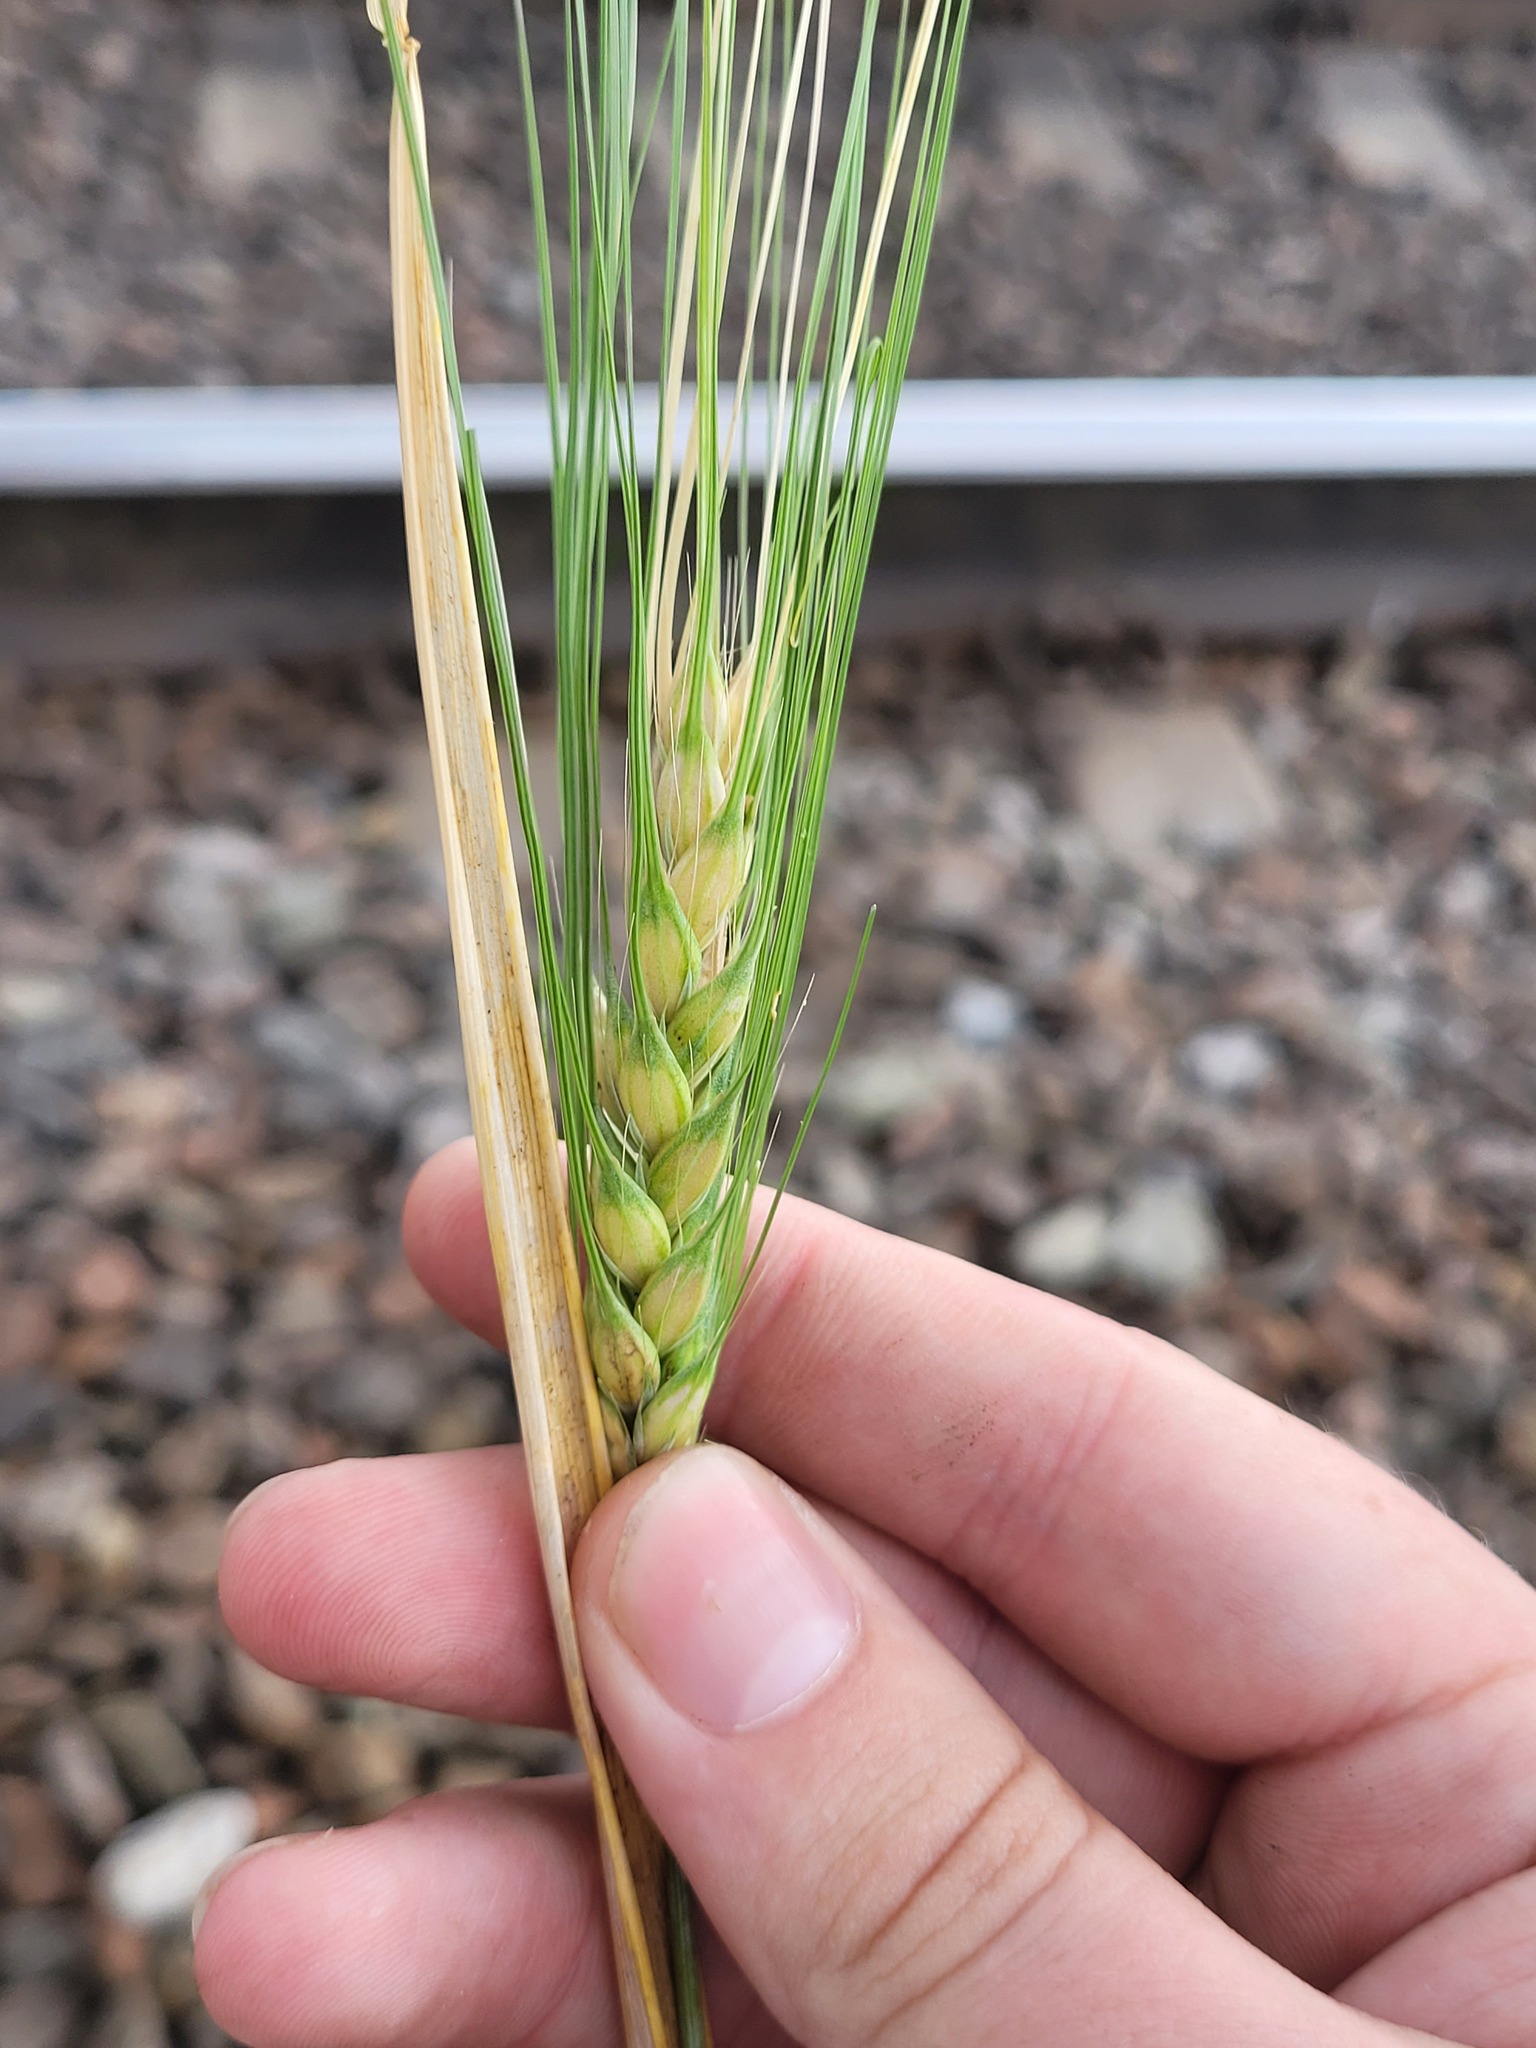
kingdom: Plantae
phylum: Tracheophyta
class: Liliopsida
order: Poales
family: Poaceae
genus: Hordeum
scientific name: Hordeum vulgare
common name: Common barley
